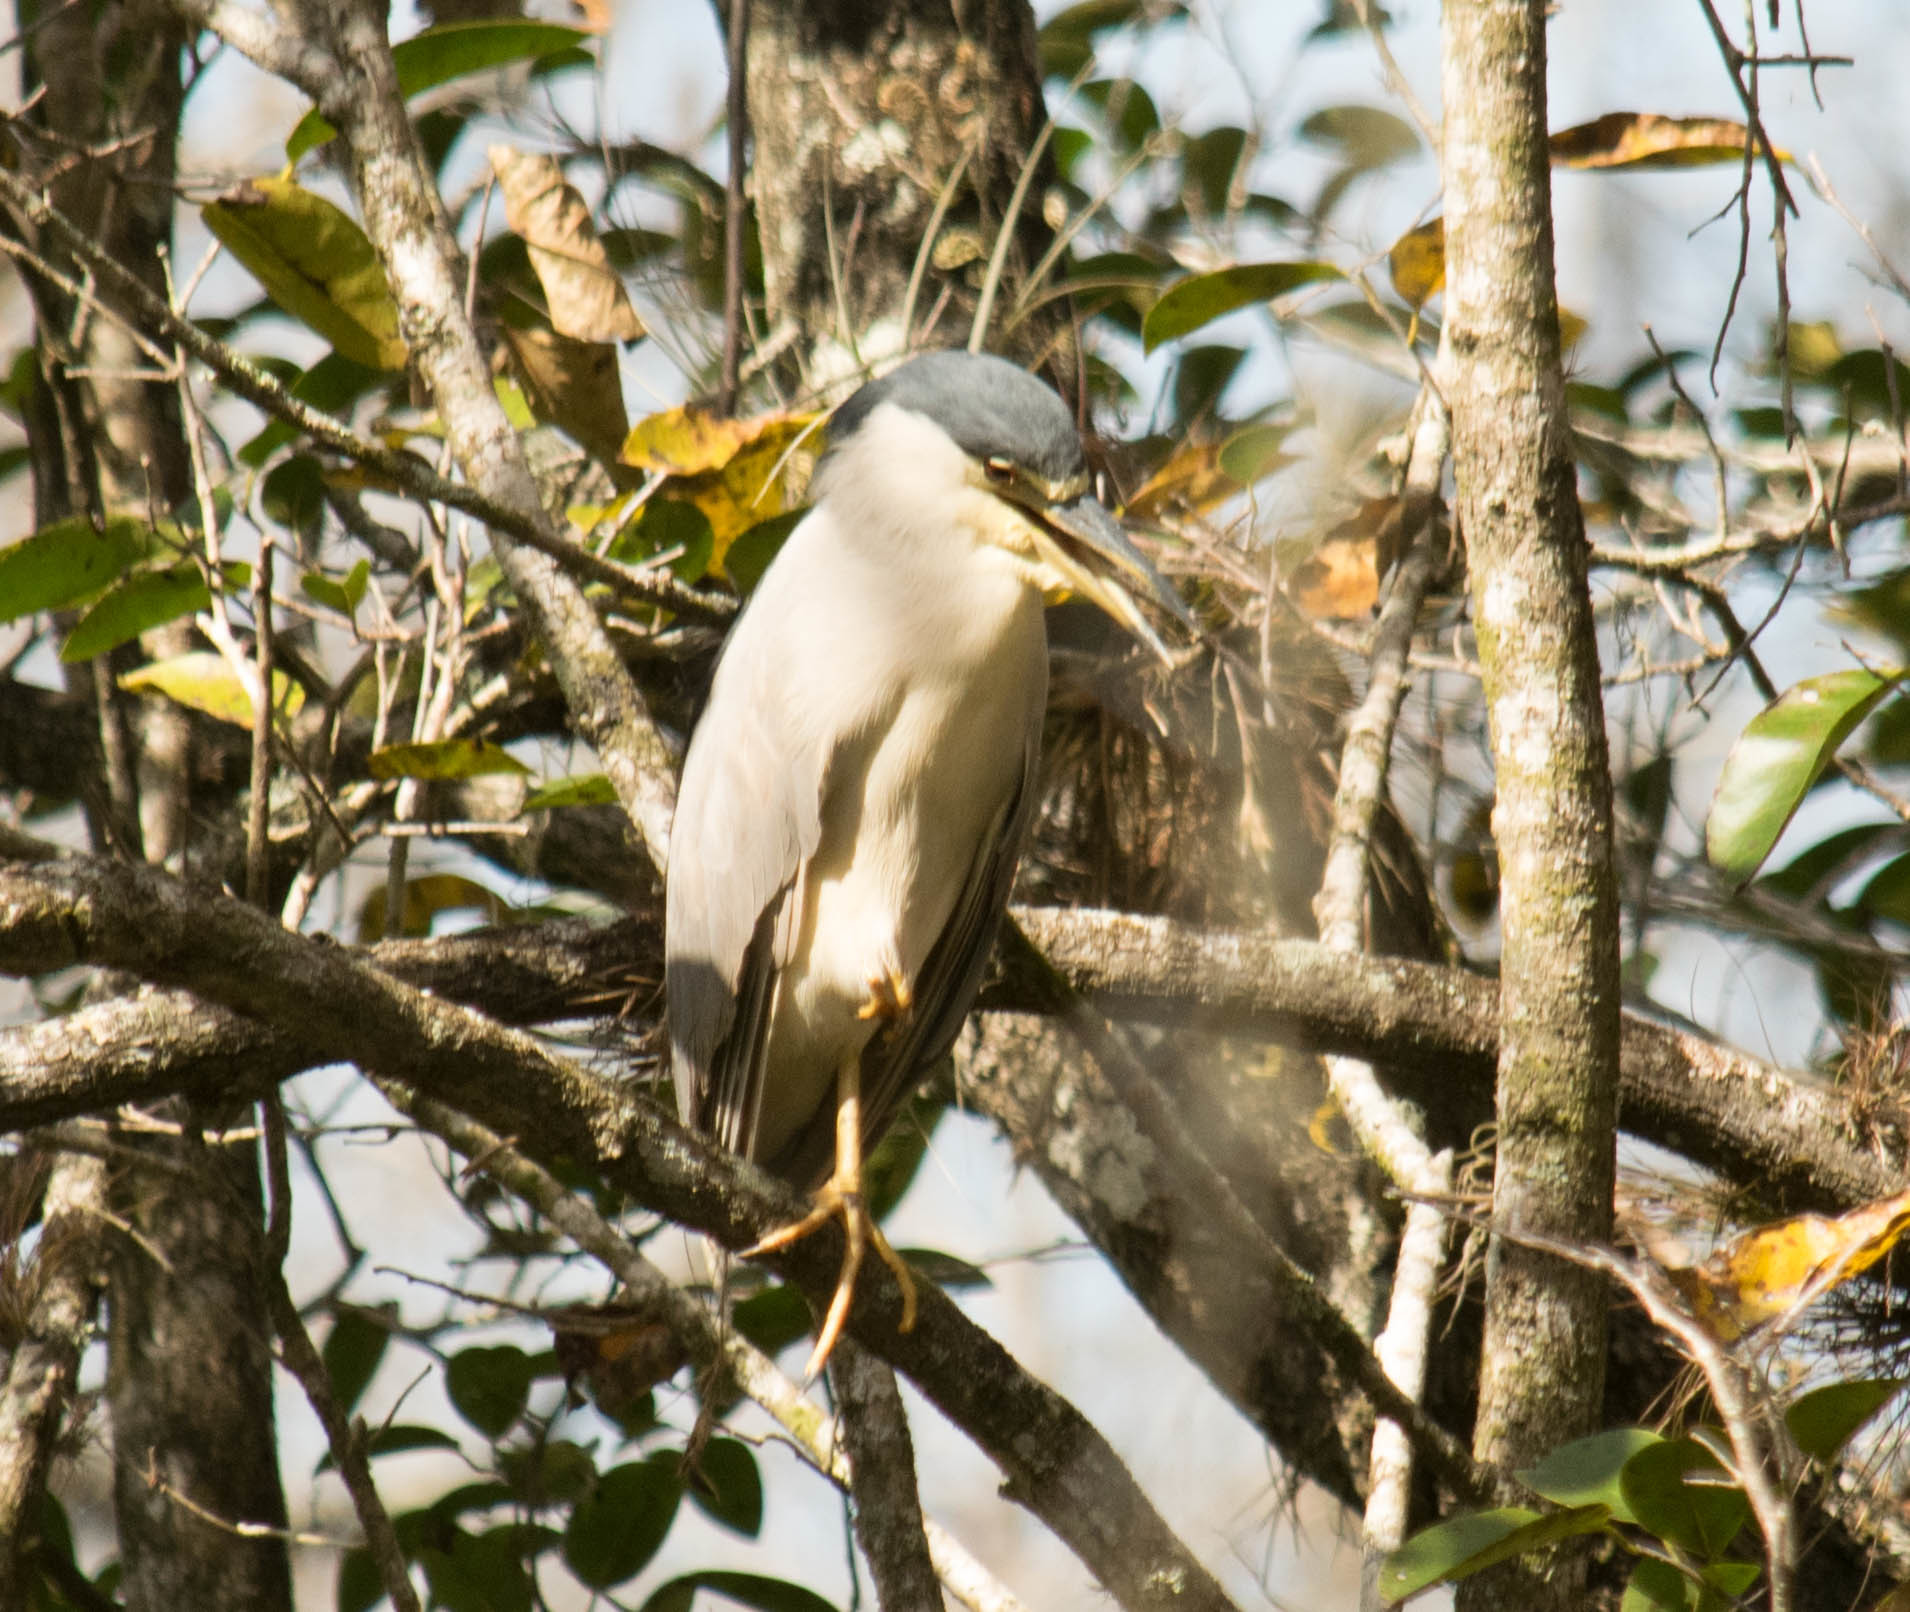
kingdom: Animalia
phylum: Chordata
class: Aves
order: Pelecaniformes
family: Ardeidae
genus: Nycticorax
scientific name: Nycticorax nycticorax
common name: Black-crowned night heron
